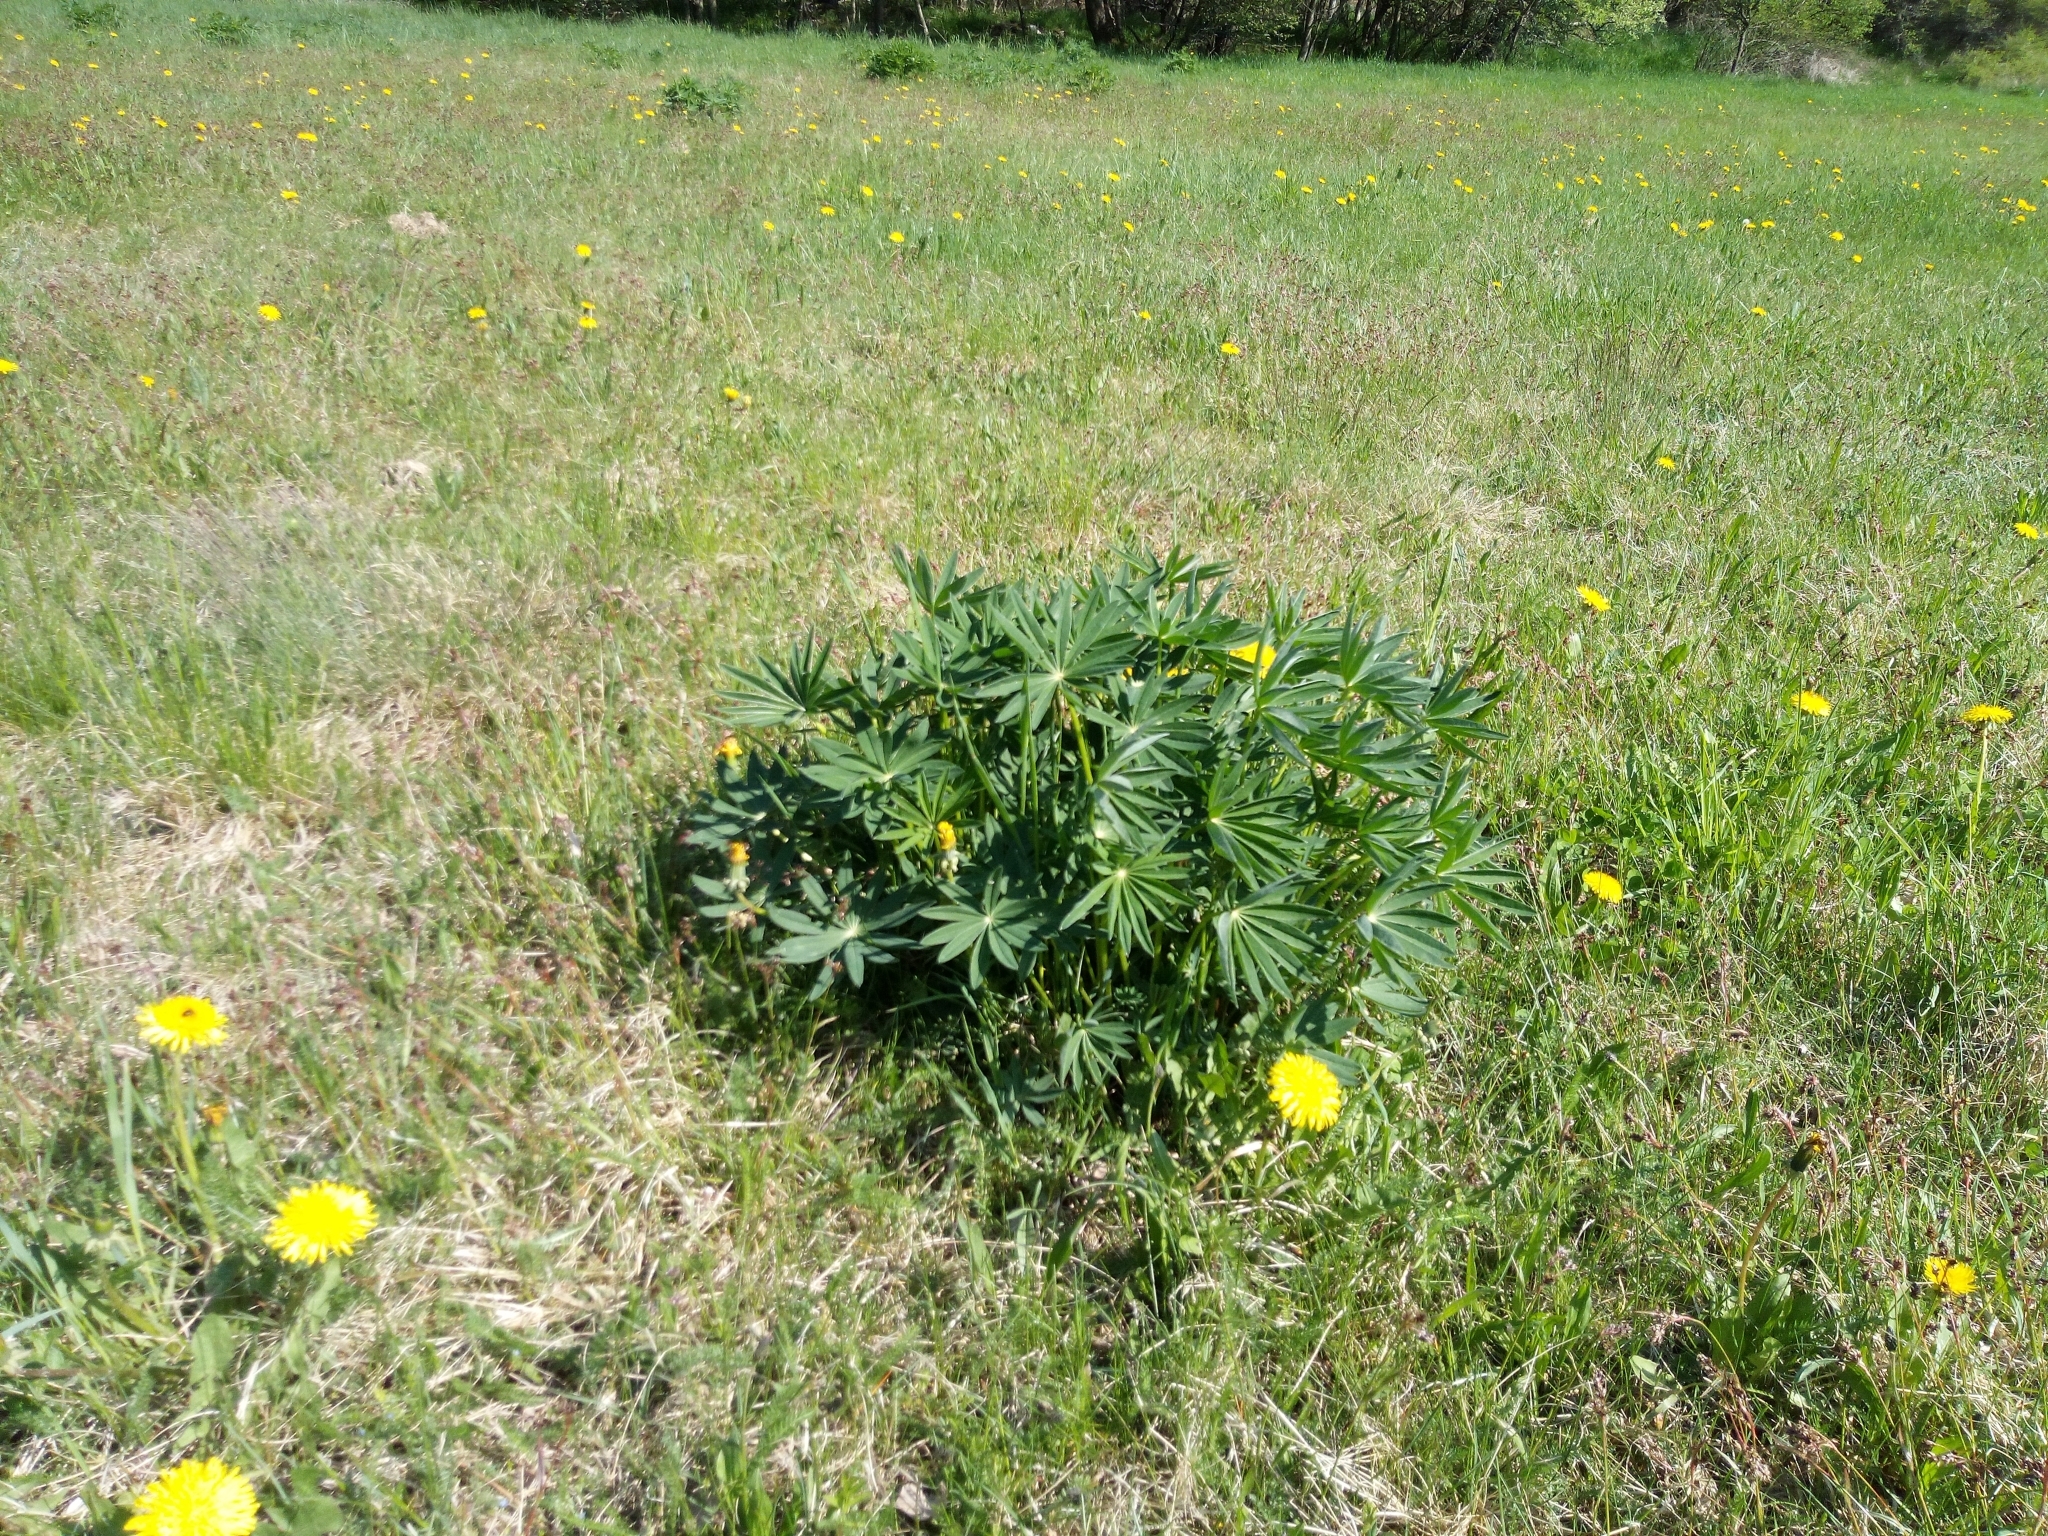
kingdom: Plantae
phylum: Tracheophyta
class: Magnoliopsida
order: Fabales
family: Fabaceae
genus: Lupinus
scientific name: Lupinus polyphyllus
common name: Garden lupin
